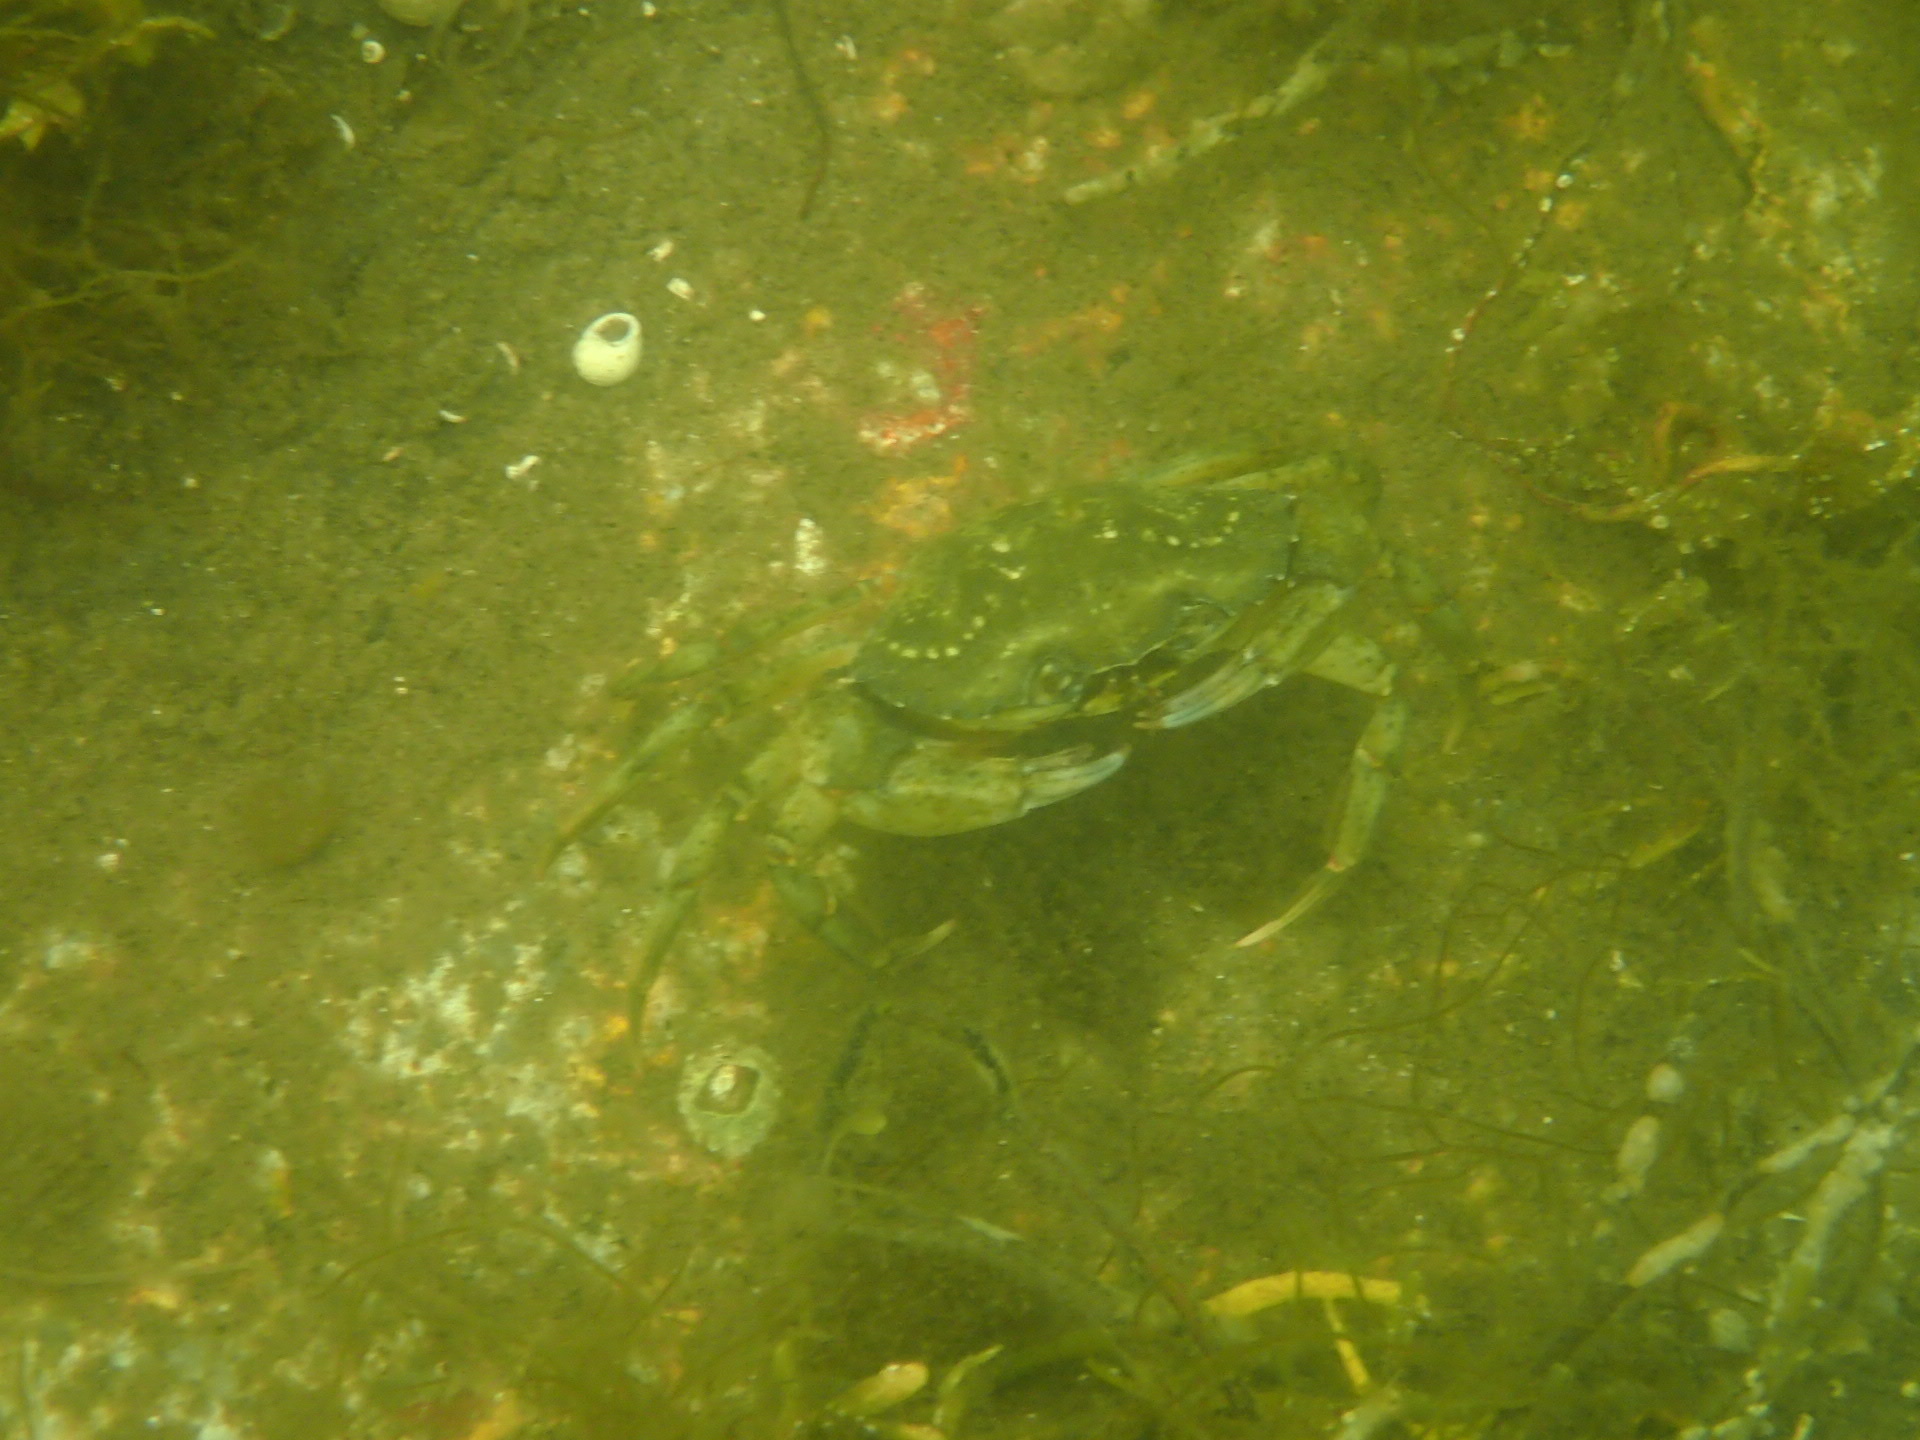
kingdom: Animalia
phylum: Arthropoda
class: Malacostraca
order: Decapoda
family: Carcinidae
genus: Carcinus
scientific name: Carcinus maenas
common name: European green crab
